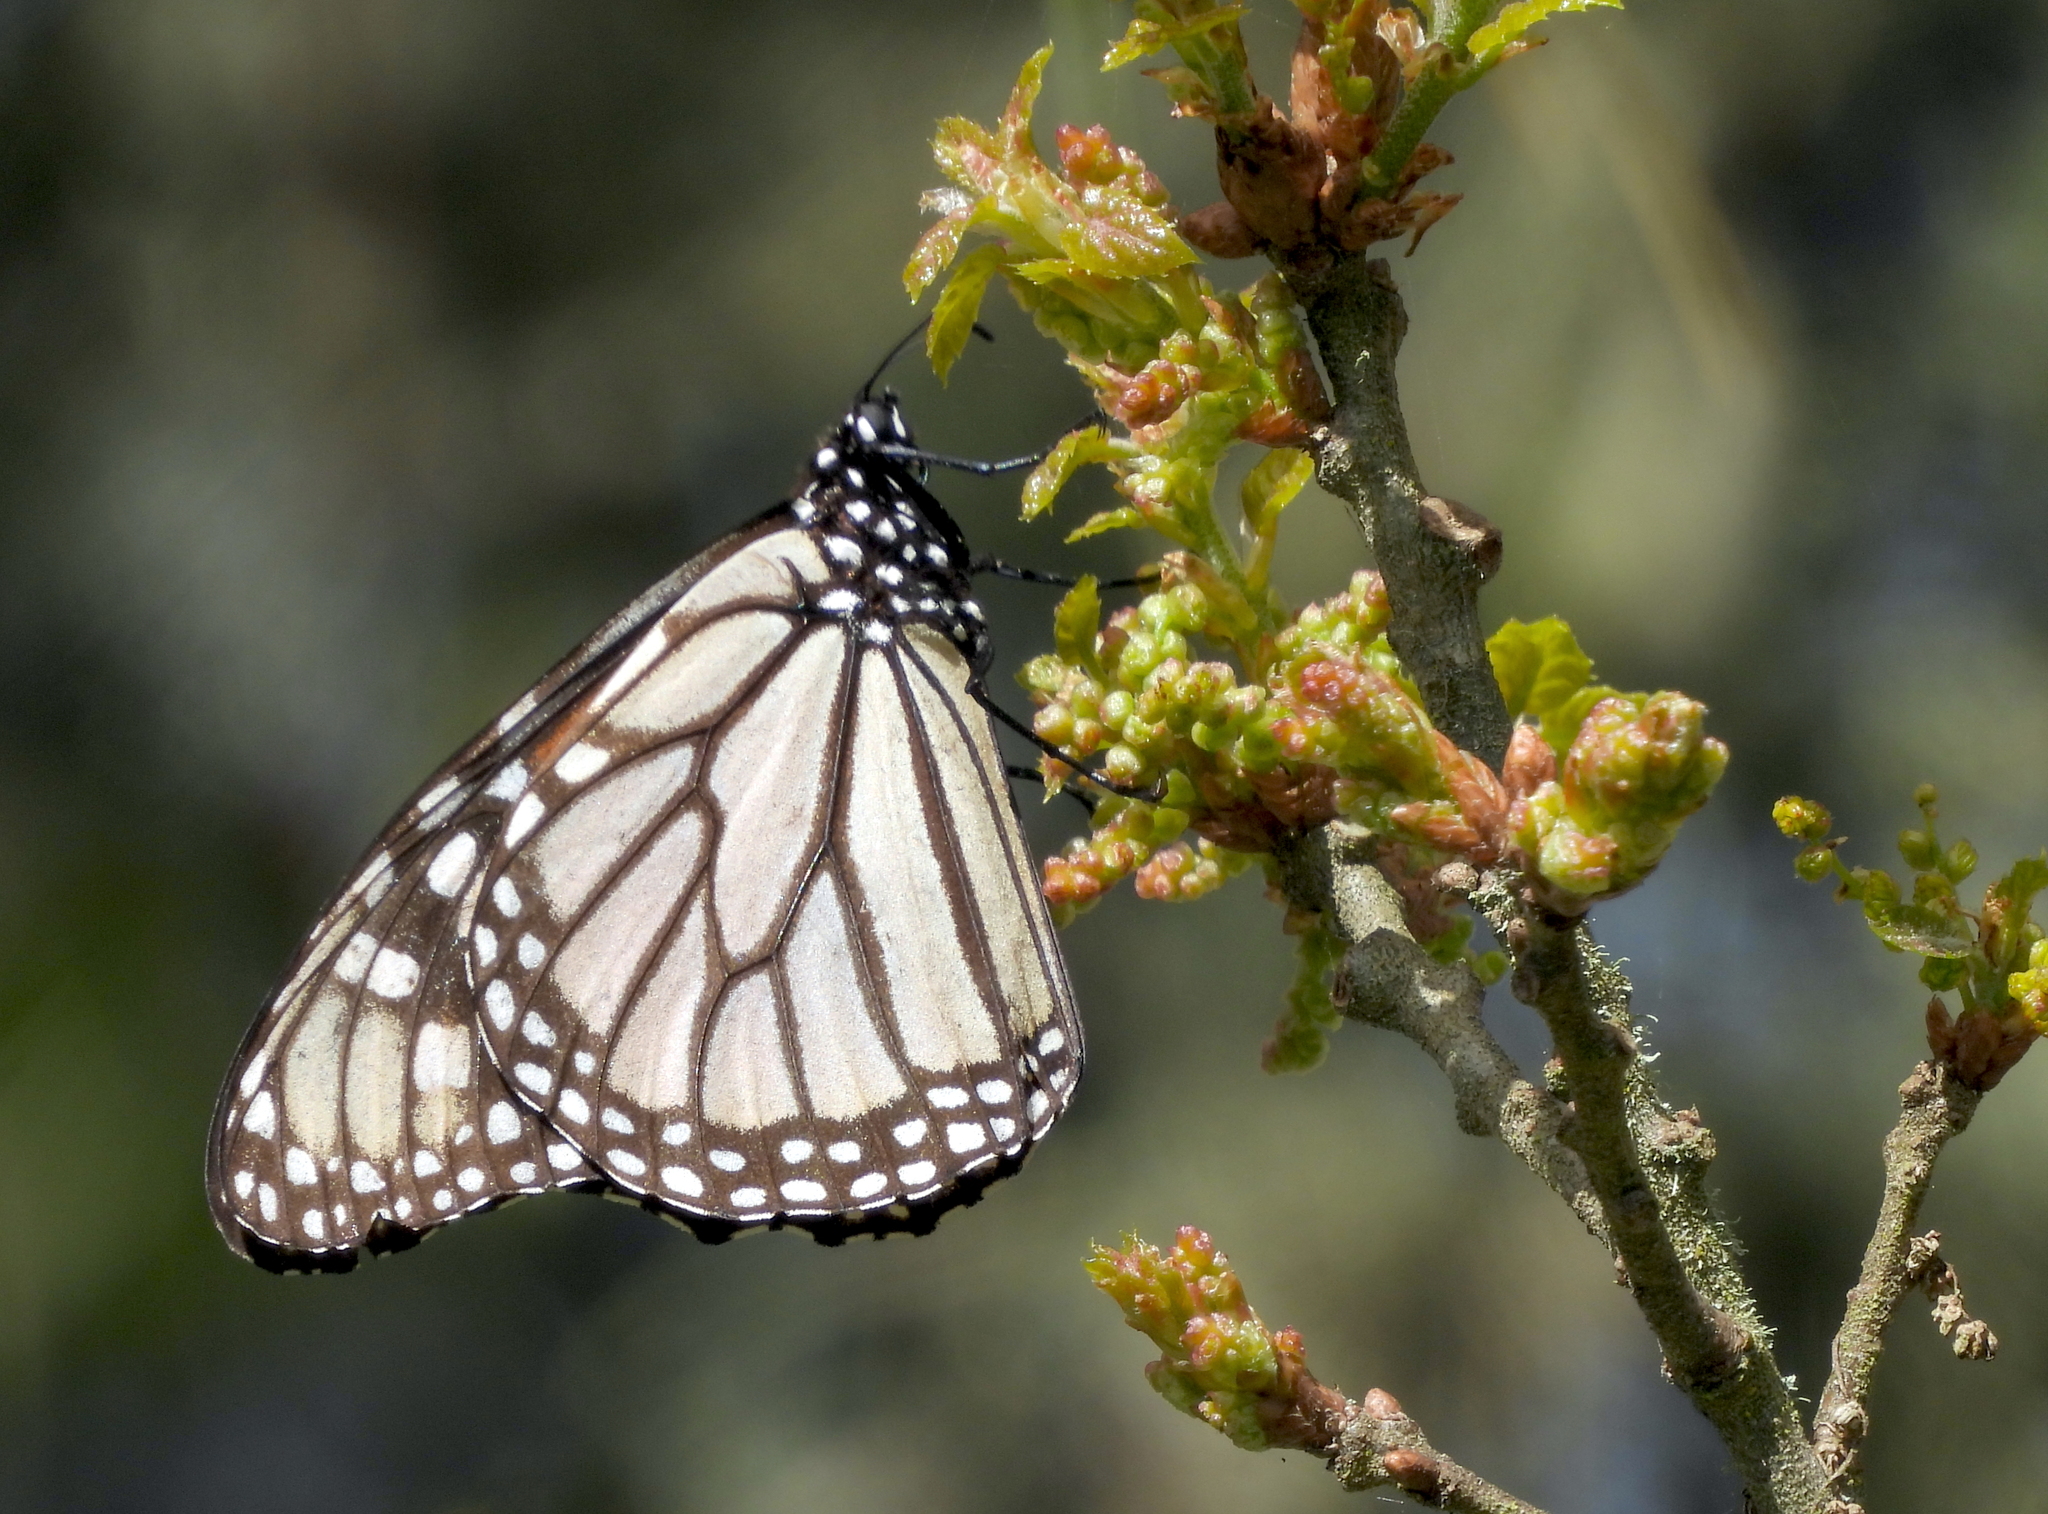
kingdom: Animalia
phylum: Arthropoda
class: Insecta
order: Lepidoptera
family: Nymphalidae
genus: Danaus
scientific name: Danaus plexippus
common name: Monarch
